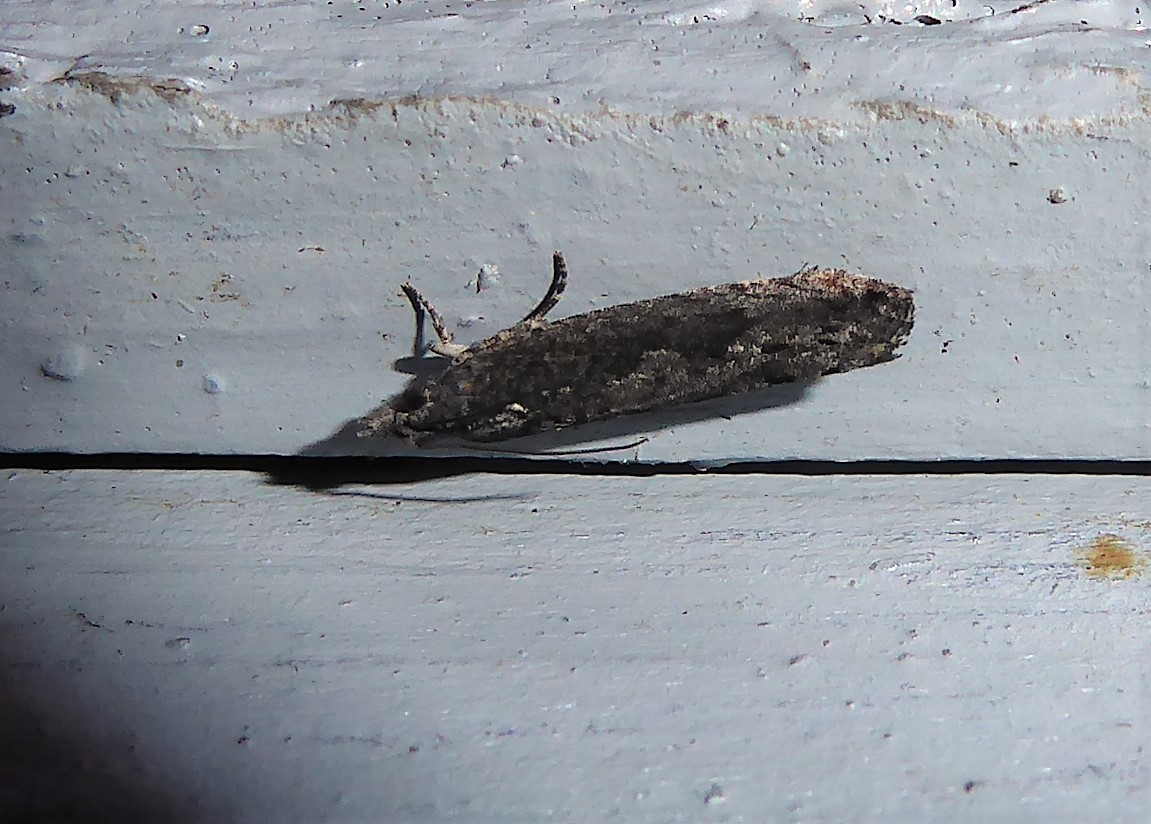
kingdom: Animalia
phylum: Arthropoda
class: Insecta
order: Lepidoptera
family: Tortricidae
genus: Strepsicrates
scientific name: Strepsicrates macropetana
